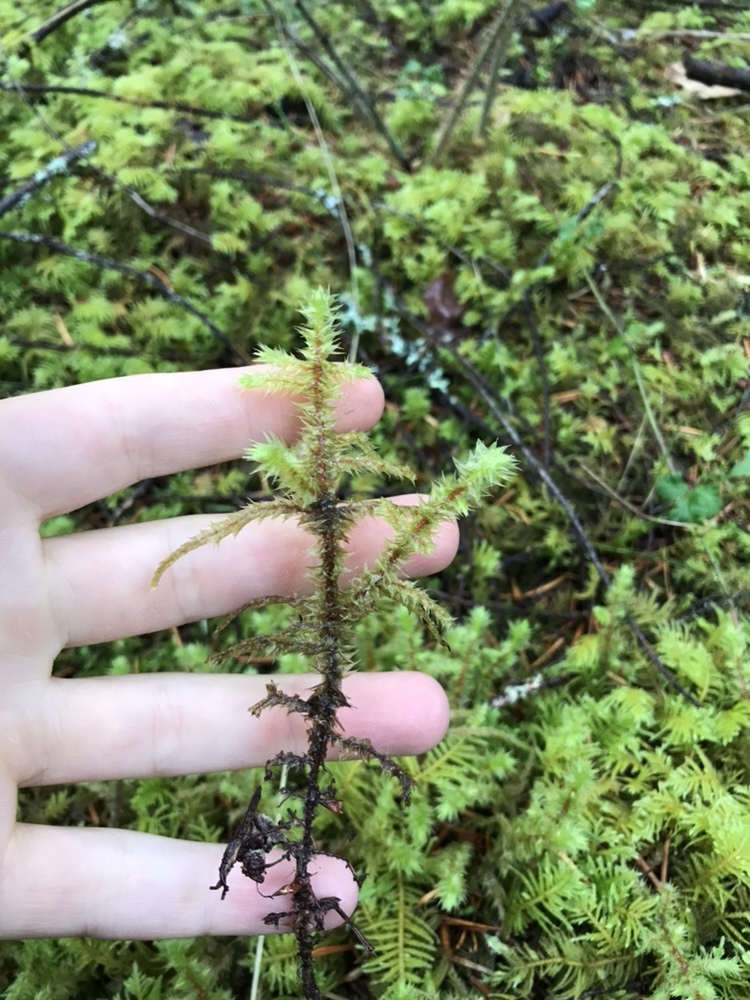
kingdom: Plantae
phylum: Bryophyta
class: Bryopsida
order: Hypnales
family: Hylocomiaceae
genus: Hylocomiadelphus
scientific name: Hylocomiadelphus triquetrus
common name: Rough goose neck moss
